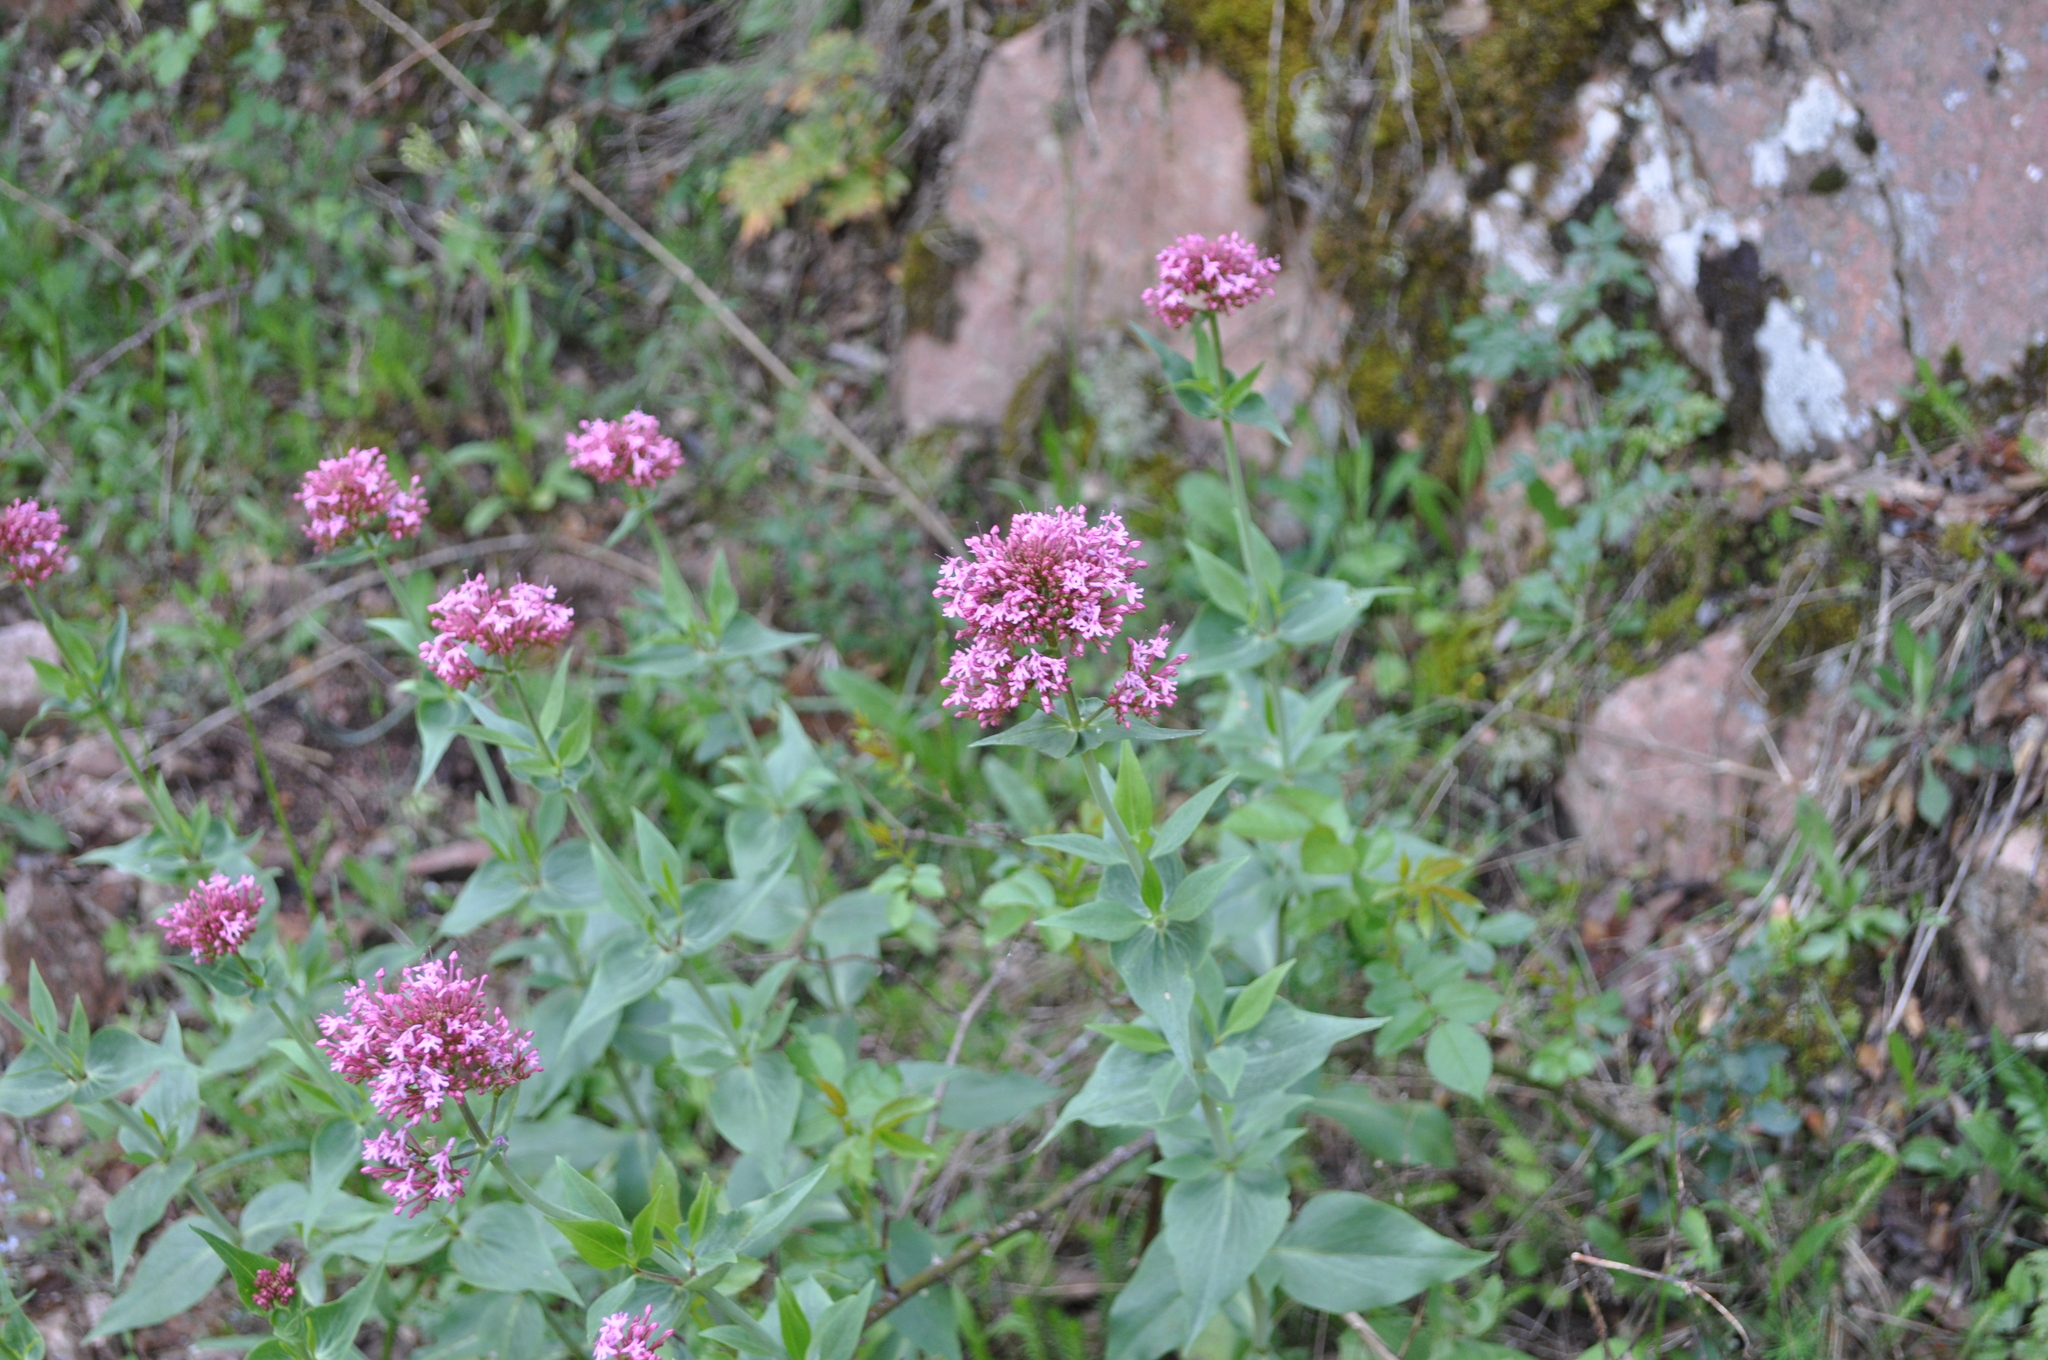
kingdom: Plantae
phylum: Tracheophyta
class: Magnoliopsida
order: Dipsacales
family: Caprifoliaceae
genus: Centranthus
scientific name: Centranthus ruber
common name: Red valerian
